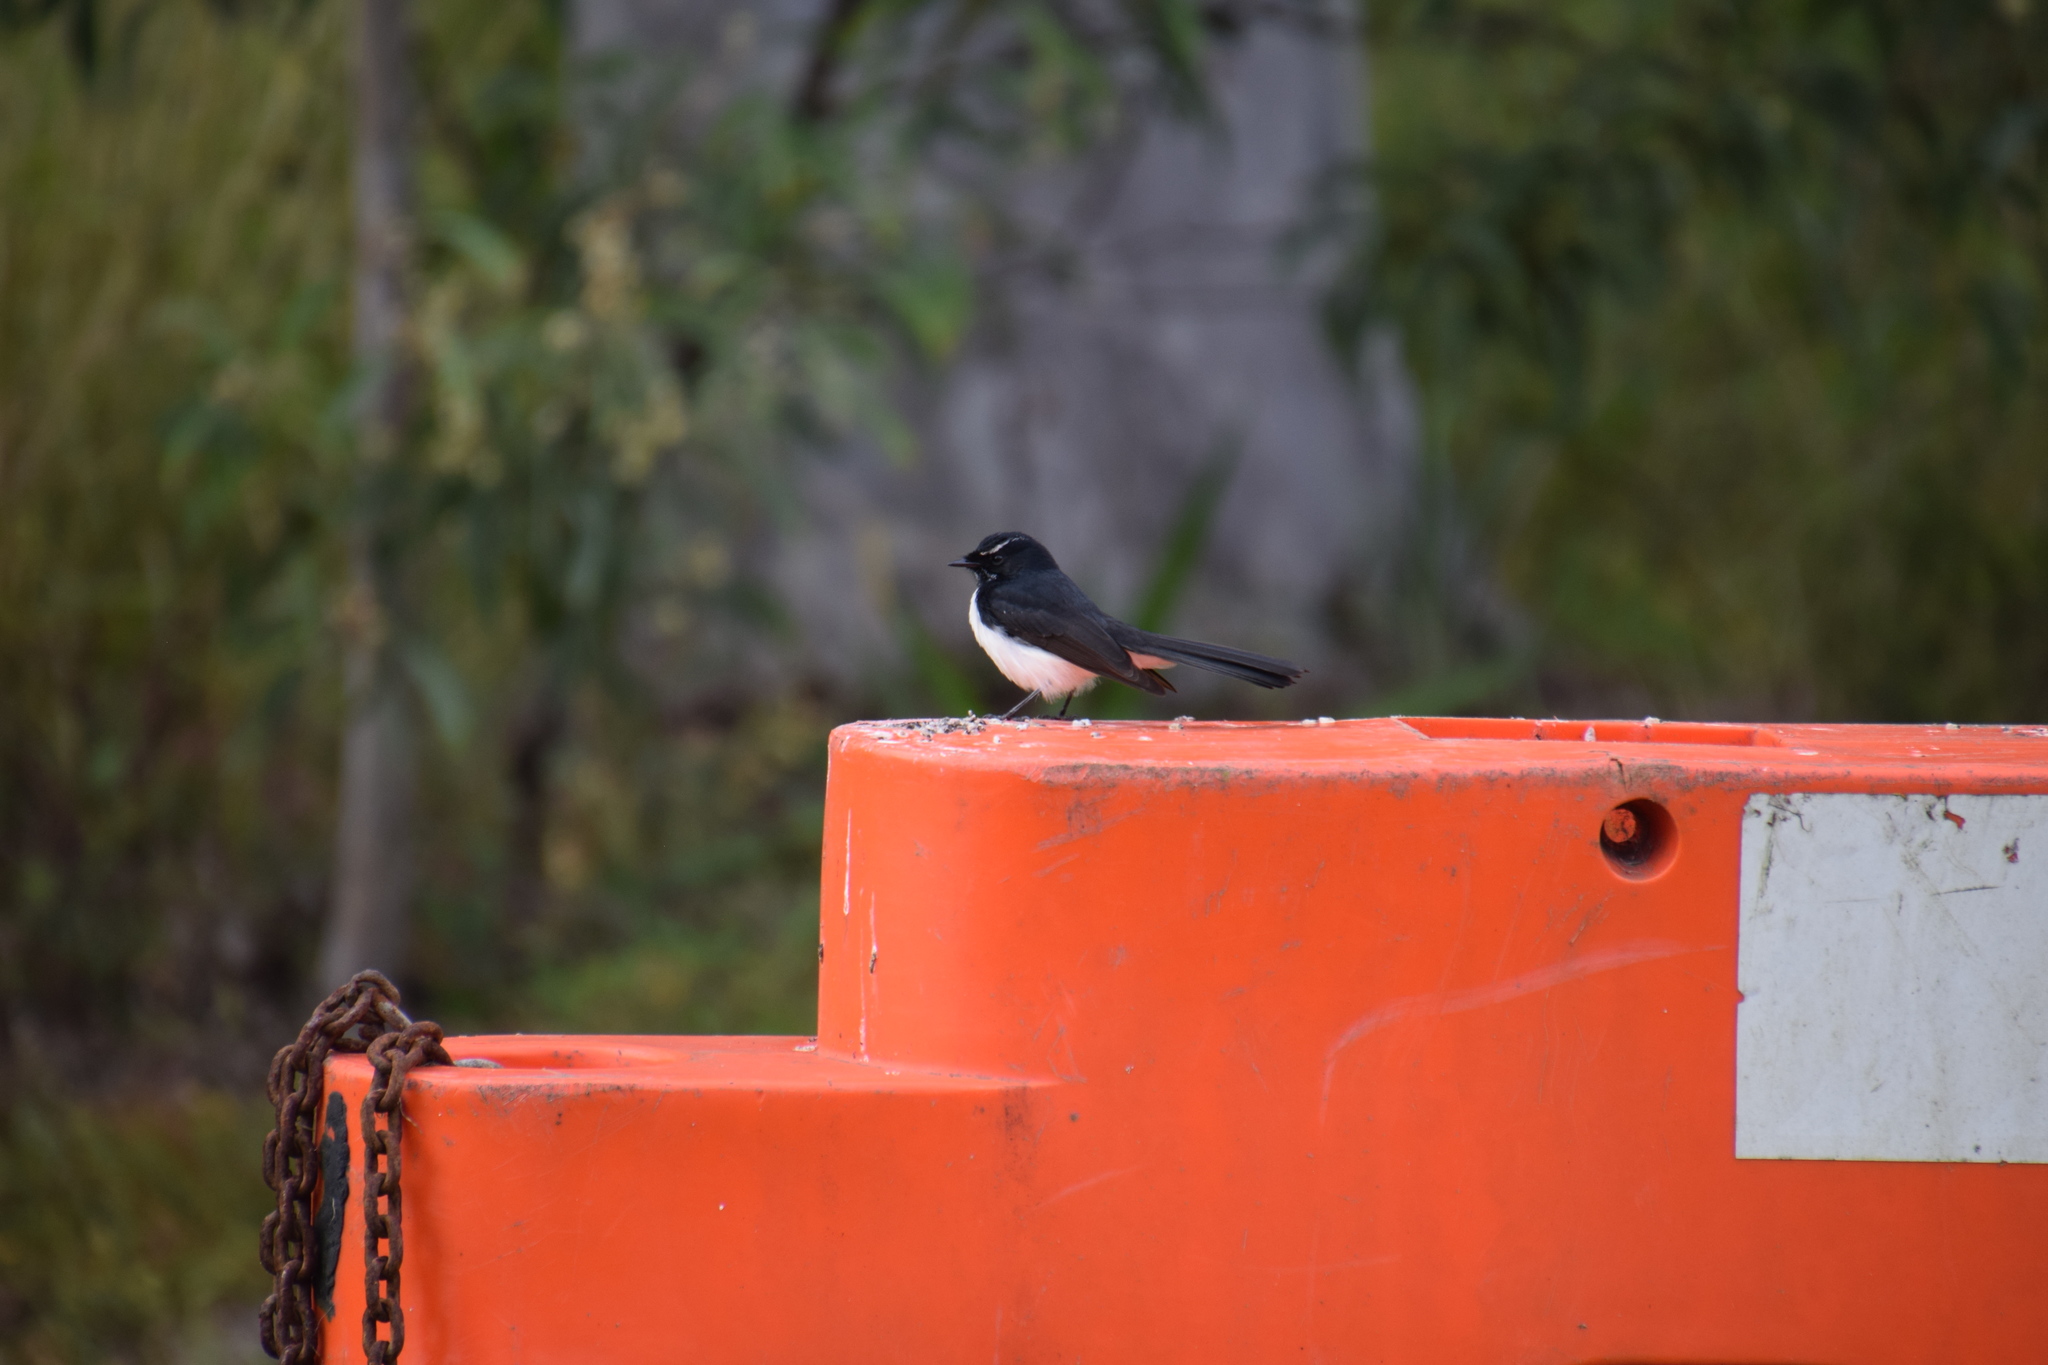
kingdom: Animalia
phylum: Chordata
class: Aves
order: Passeriformes
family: Rhipiduridae
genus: Rhipidura
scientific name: Rhipidura leucophrys
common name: Willie wagtail
